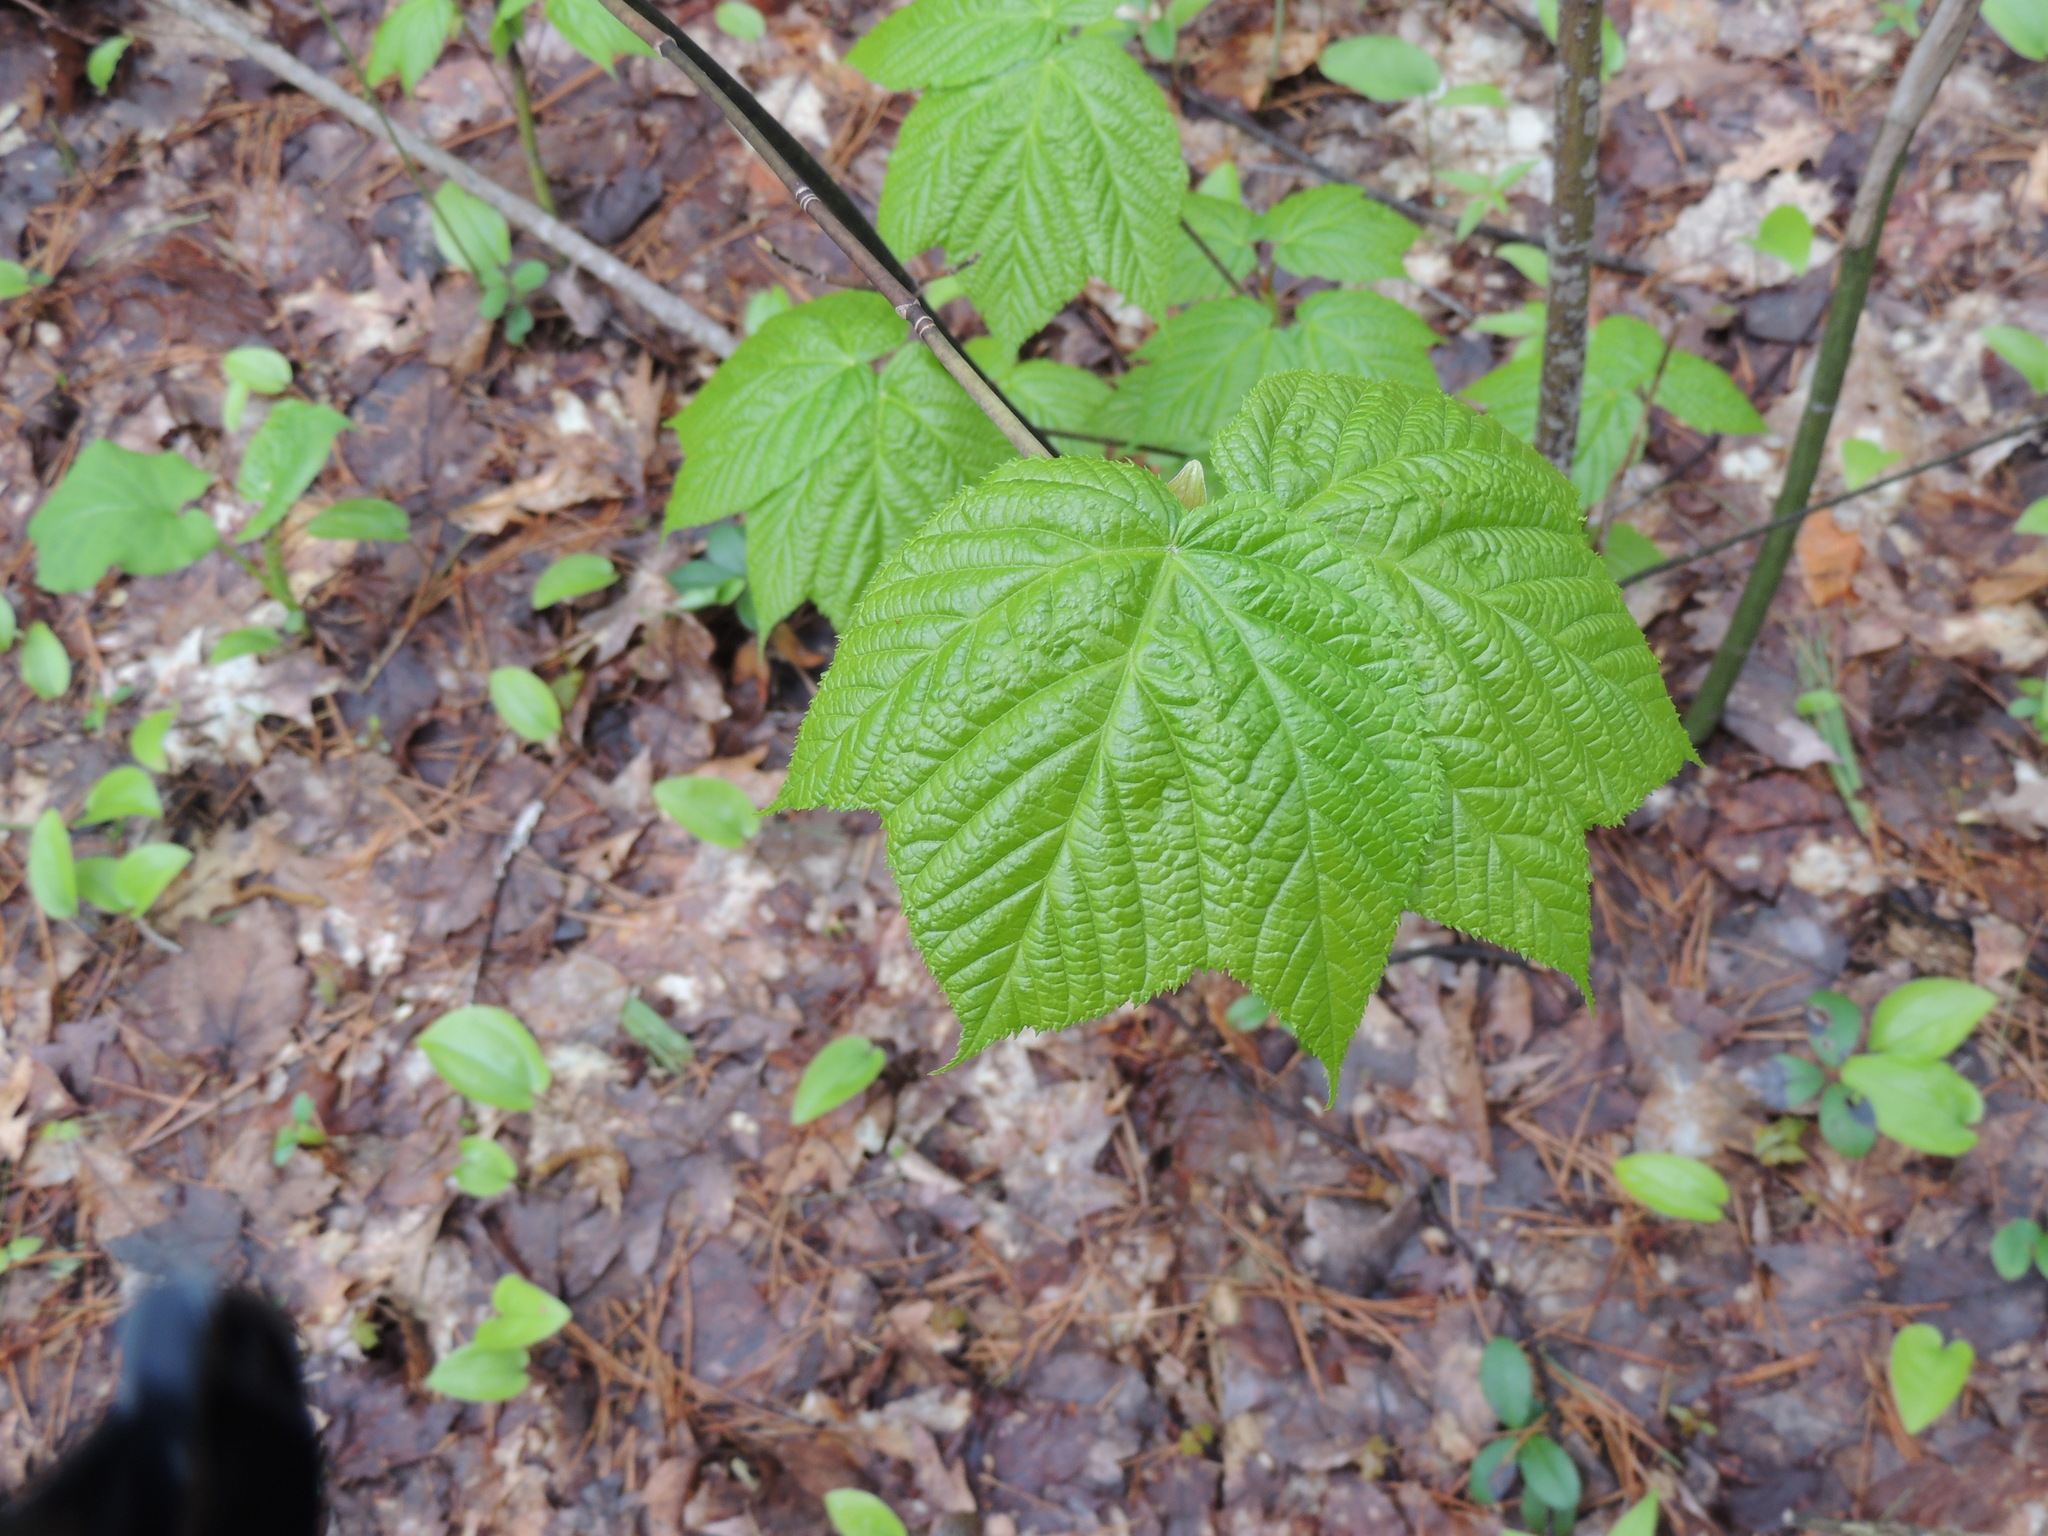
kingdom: Plantae
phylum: Tracheophyta
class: Magnoliopsida
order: Sapindales
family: Sapindaceae
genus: Acer
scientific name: Acer pensylvanicum
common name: Moosewood
